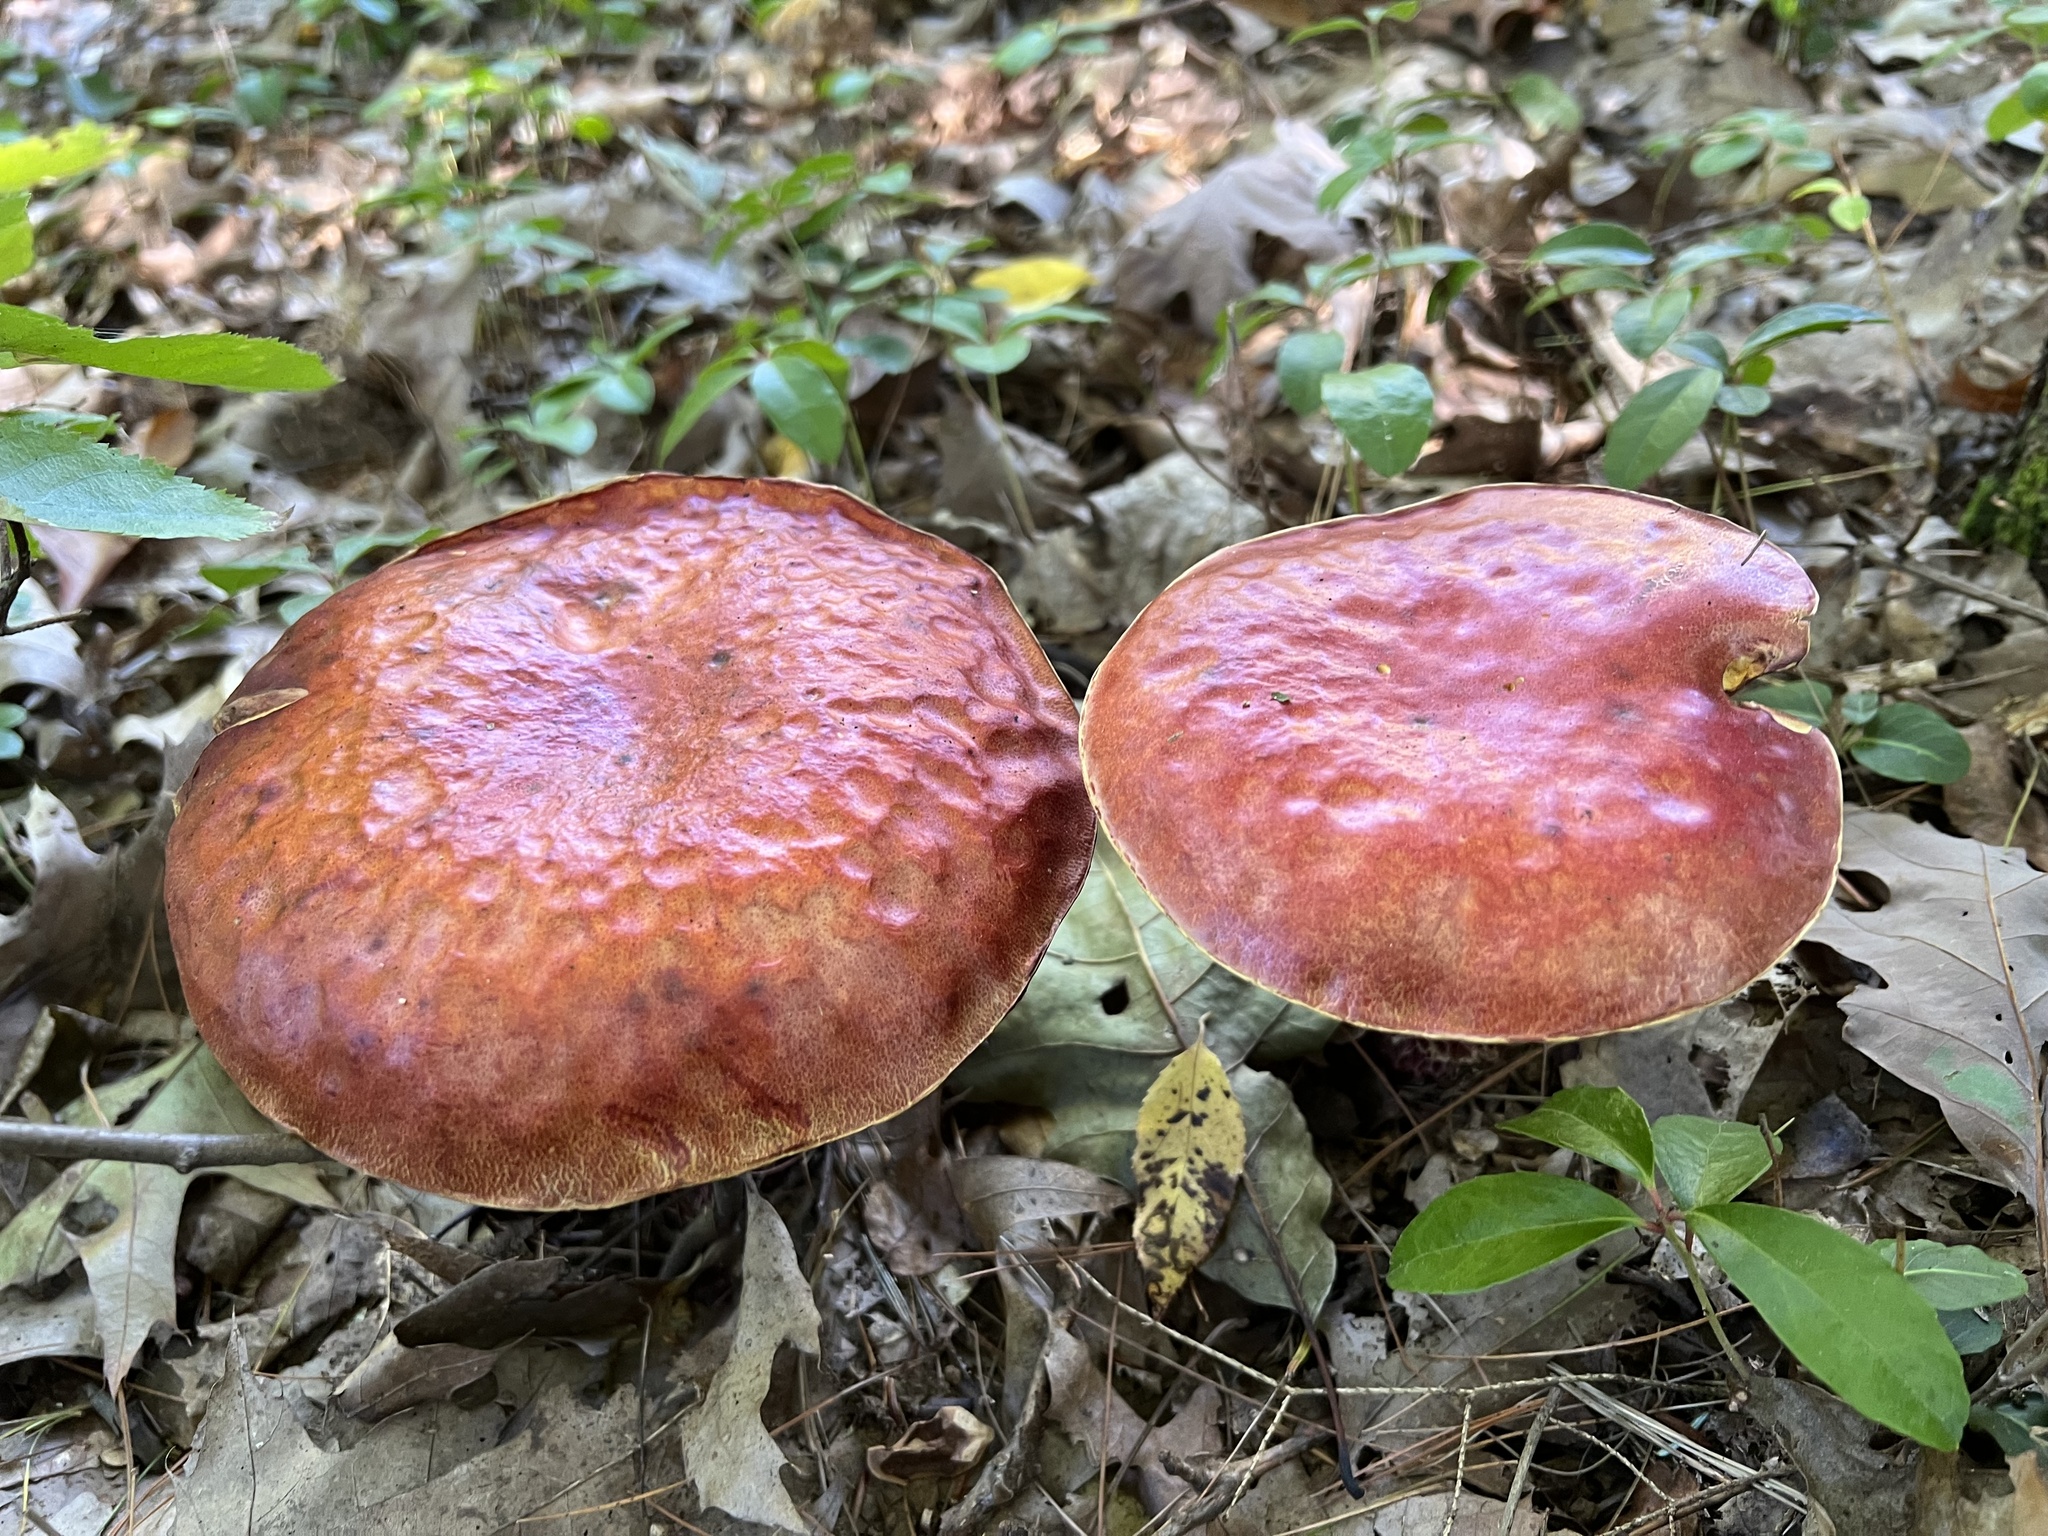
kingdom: Fungi
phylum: Basidiomycota
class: Agaricomycetes
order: Boletales
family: Boletaceae
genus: Butyriboletus
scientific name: Butyriboletus frostii
